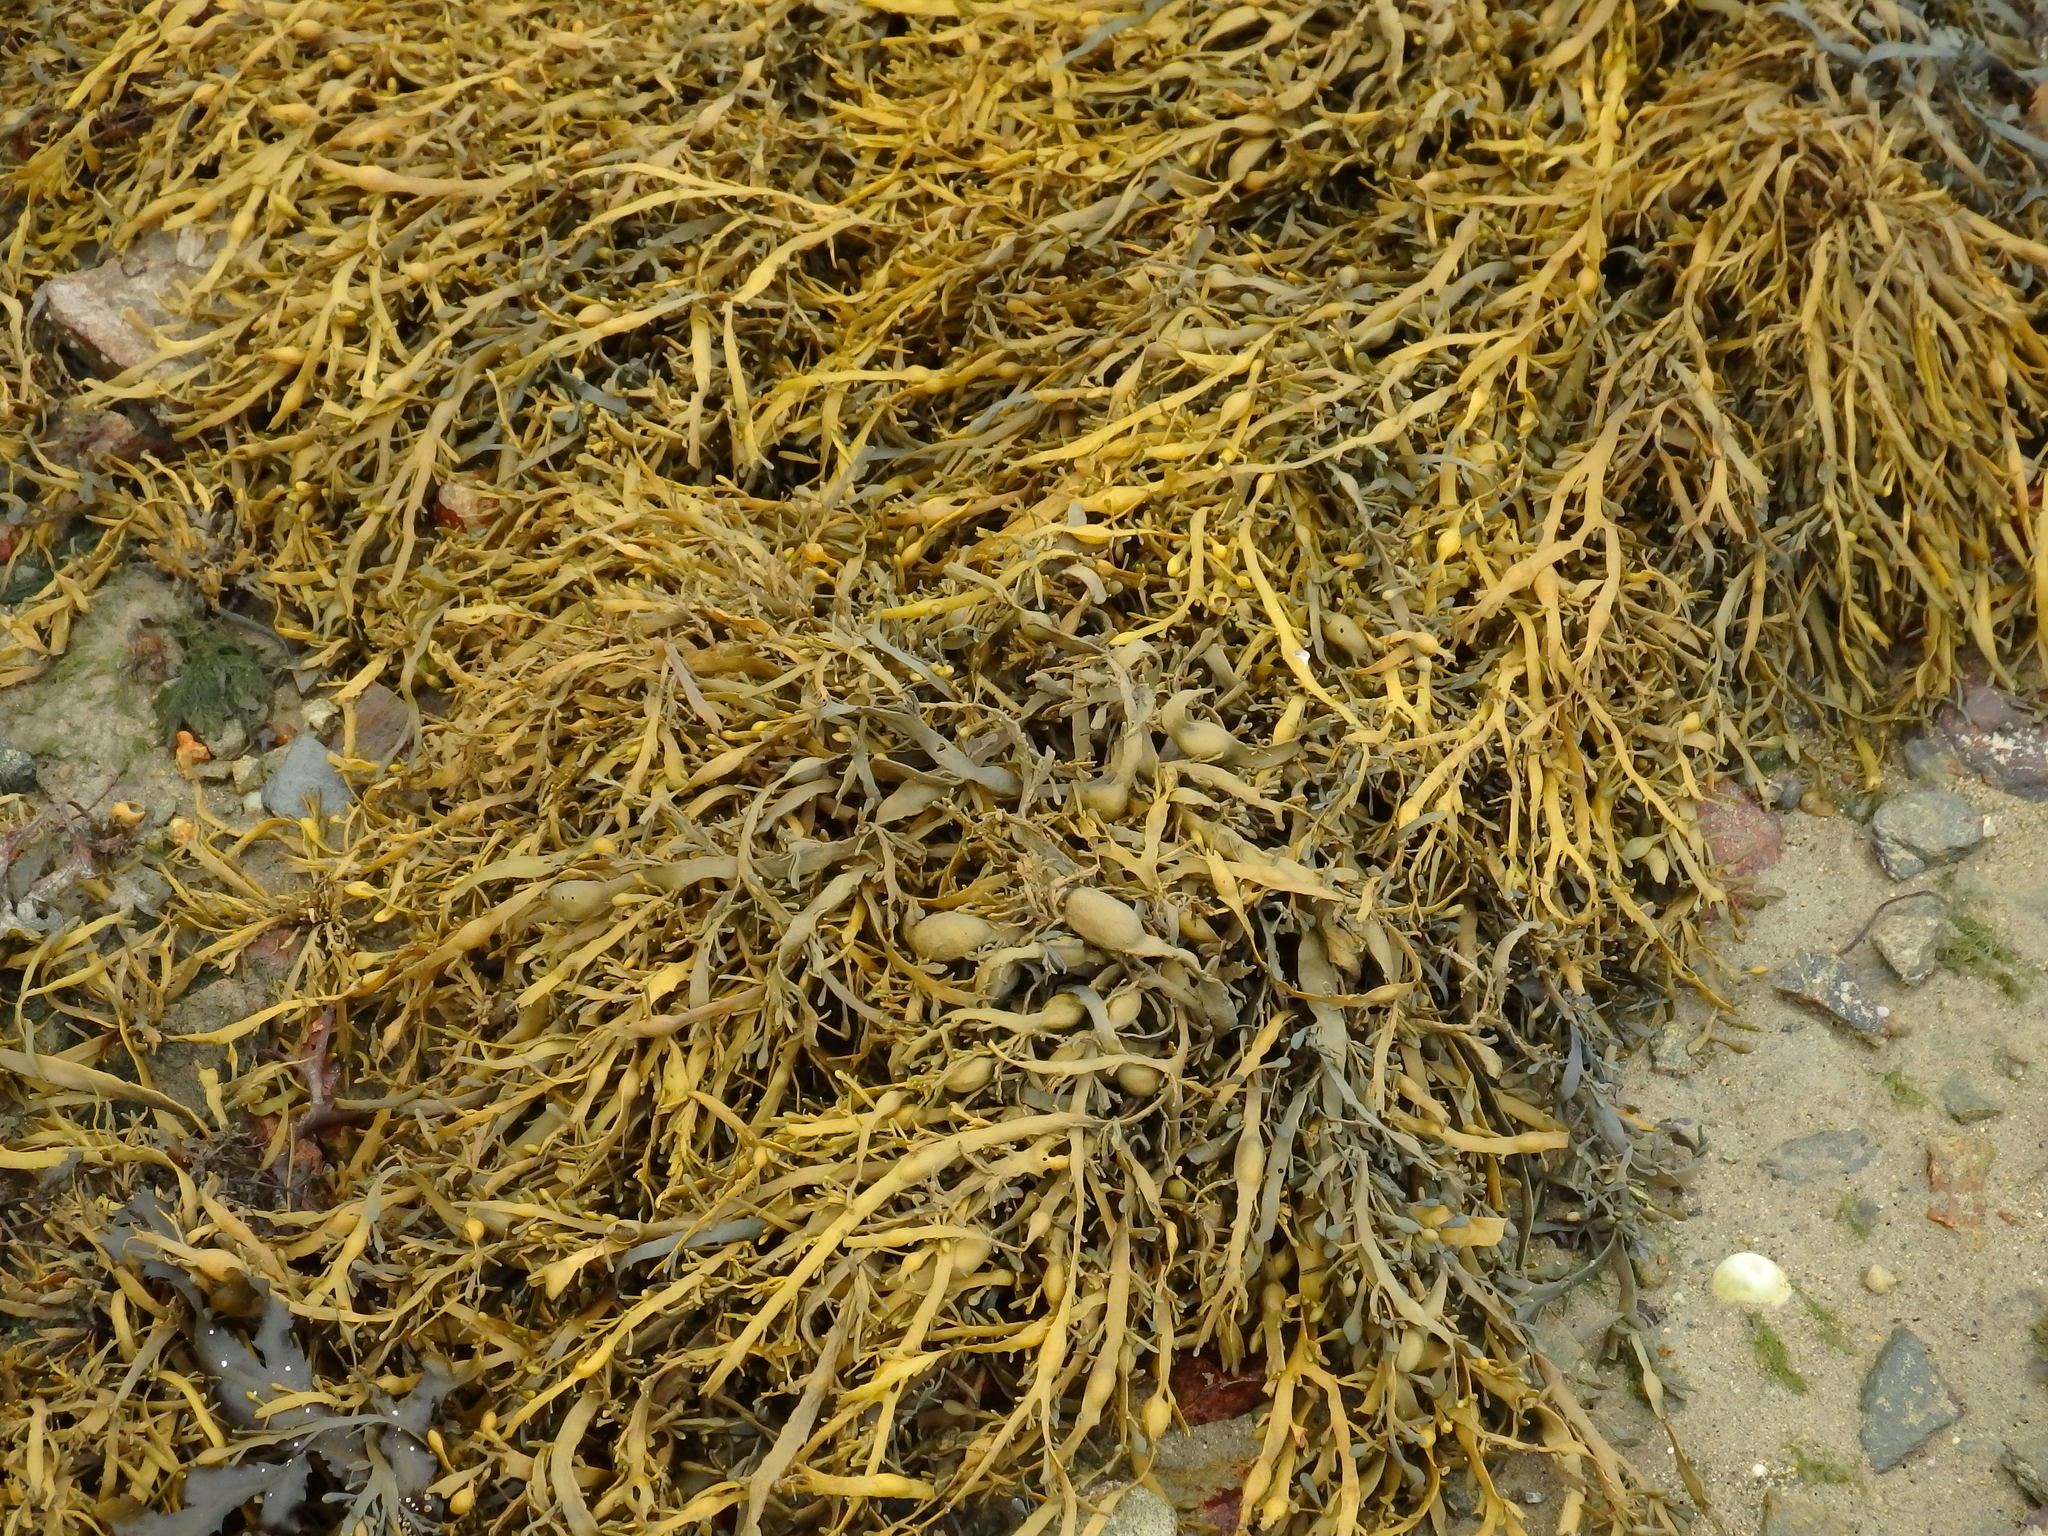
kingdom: Chromista
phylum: Ochrophyta
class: Phaeophyceae
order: Fucales
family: Fucaceae
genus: Ascophyllum
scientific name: Ascophyllum nodosum
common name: Knotted wrack
